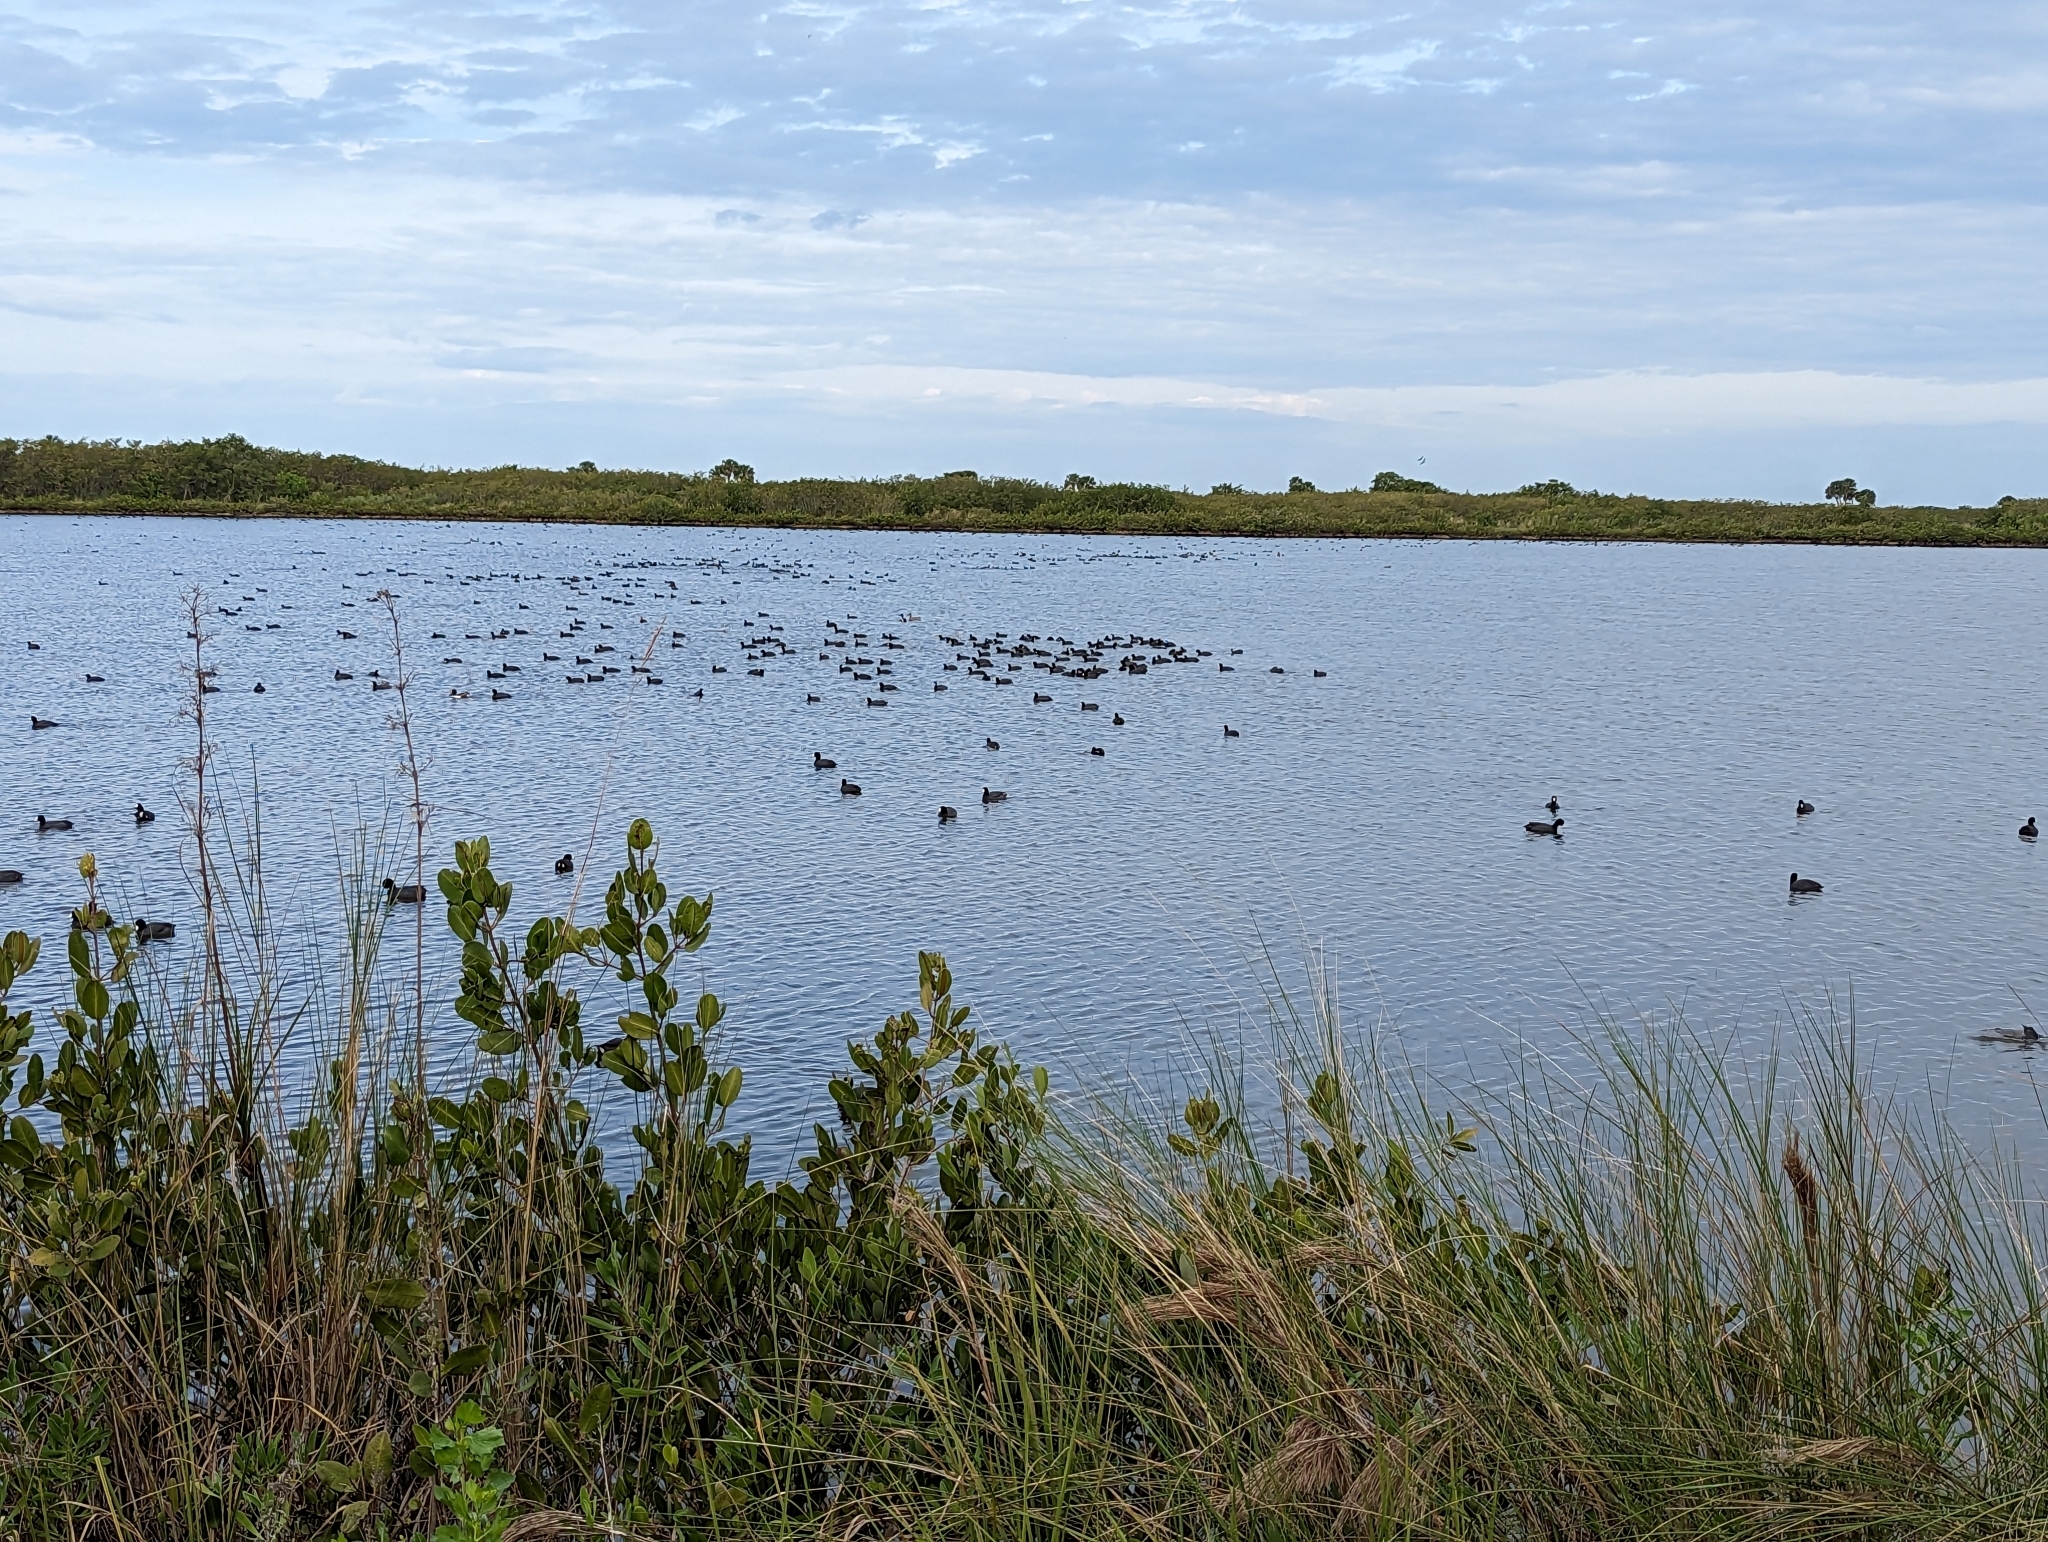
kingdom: Animalia
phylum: Chordata
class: Aves
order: Gruiformes
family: Rallidae
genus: Fulica
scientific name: Fulica americana
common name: American coot
